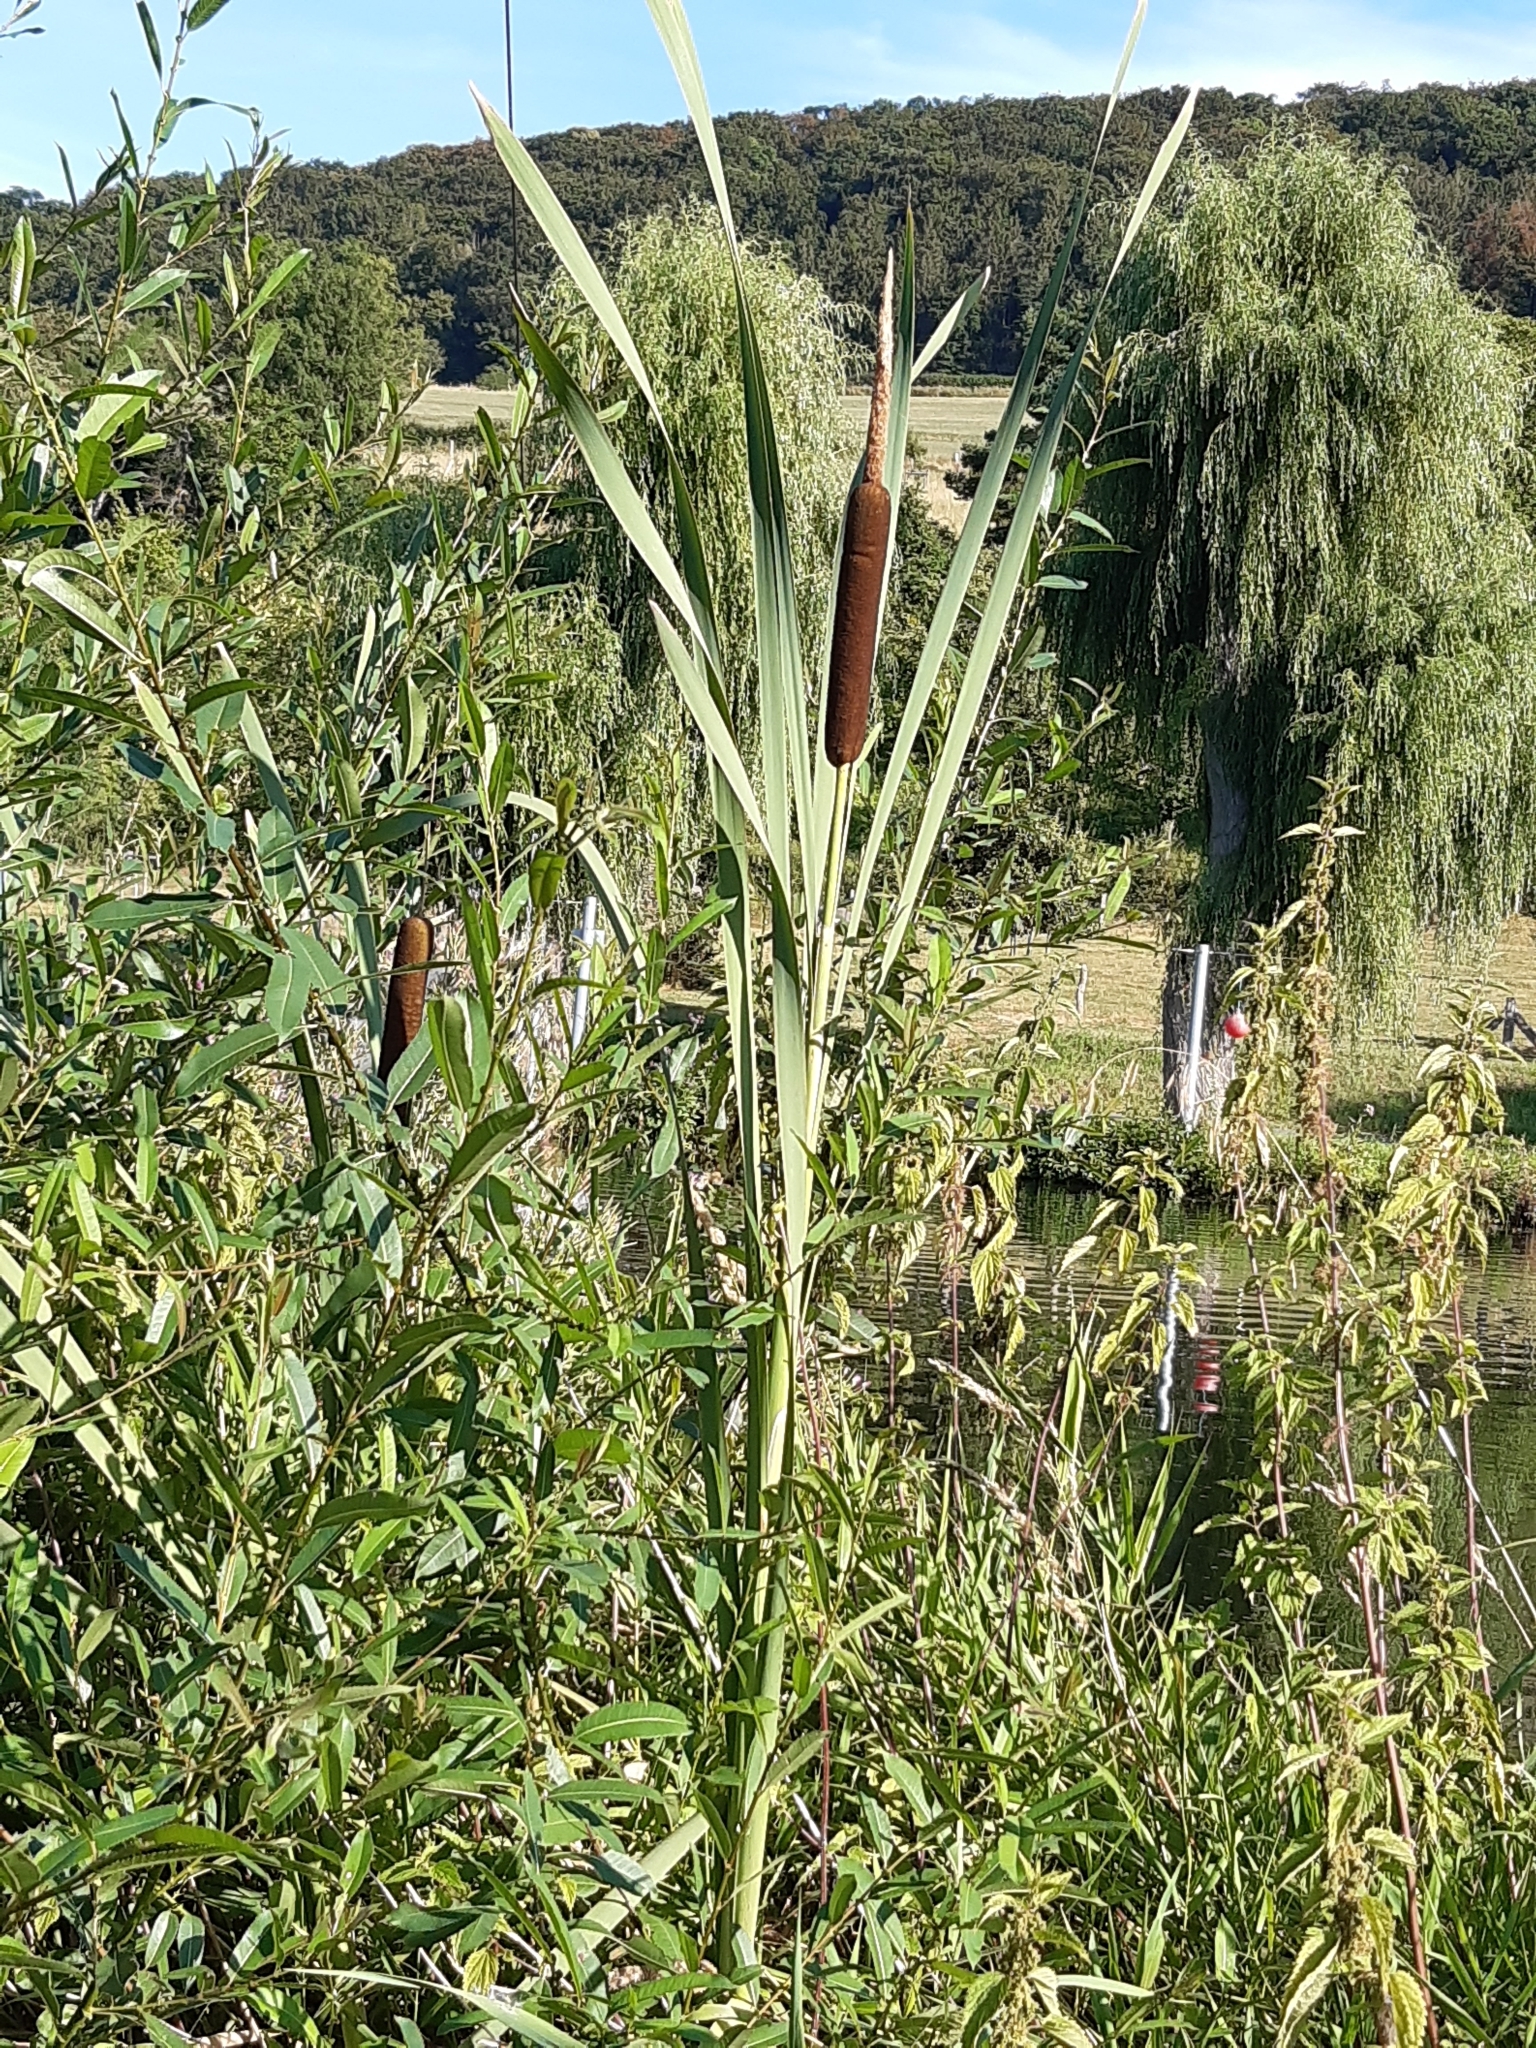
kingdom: Plantae
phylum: Tracheophyta
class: Liliopsida
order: Poales
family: Typhaceae
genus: Typha
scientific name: Typha latifolia
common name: Broadleaf cattail
